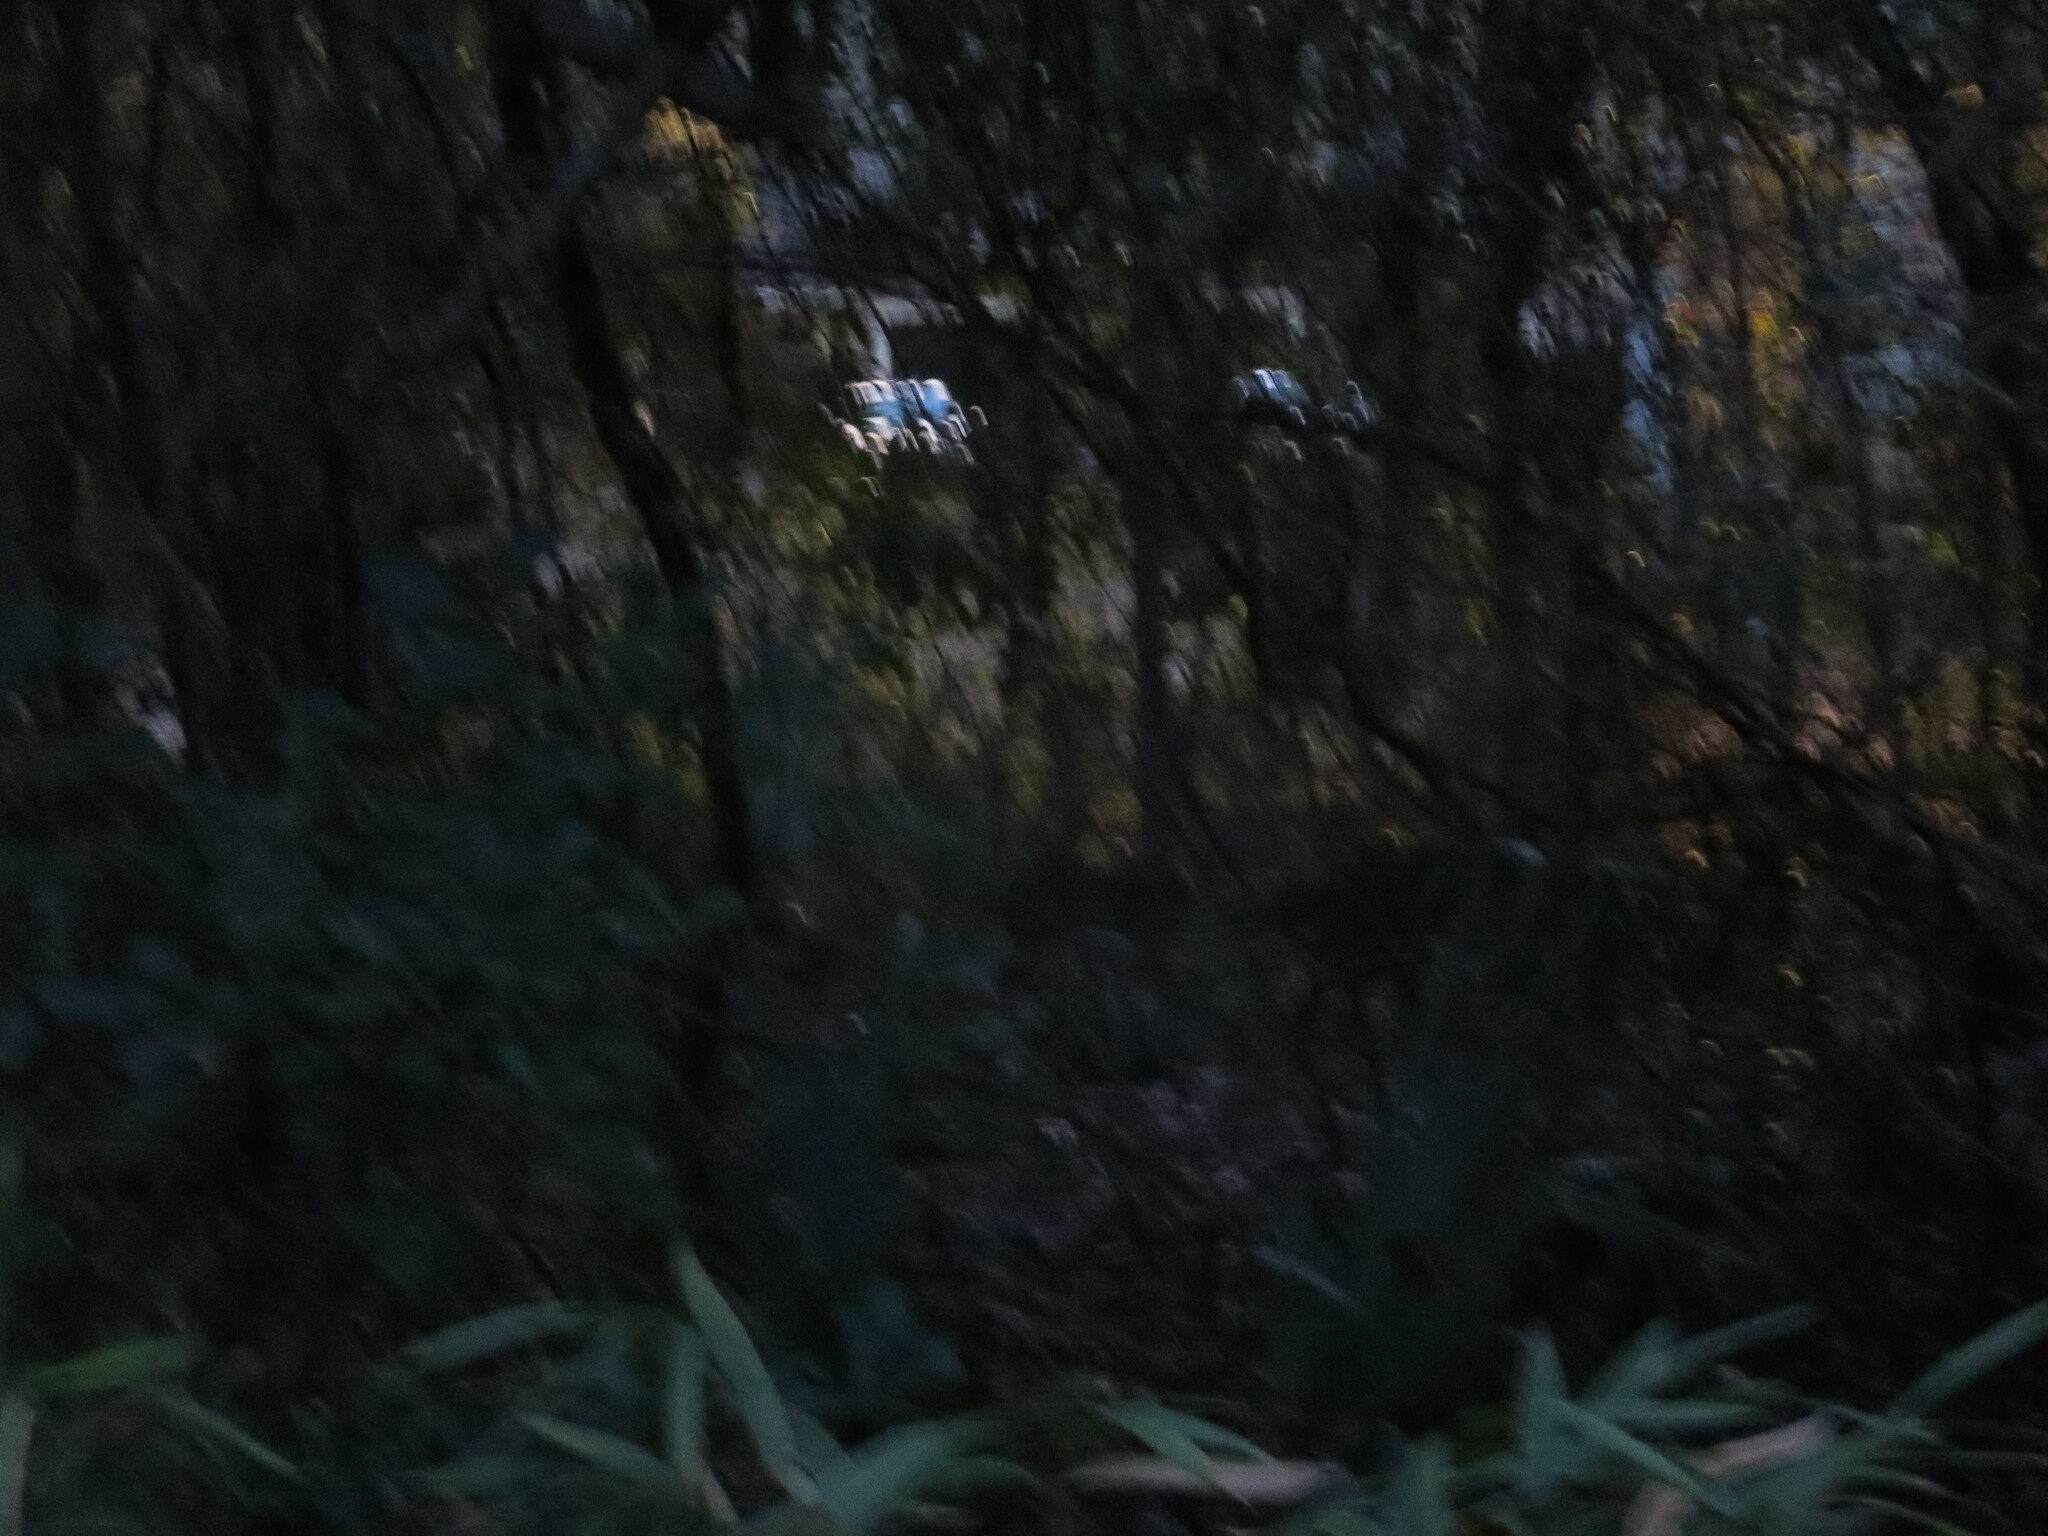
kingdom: Animalia
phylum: Chordata
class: Mammalia
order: Artiodactyla
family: Cervidae
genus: Odocoileus
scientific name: Odocoileus virginianus
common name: White-tailed deer
